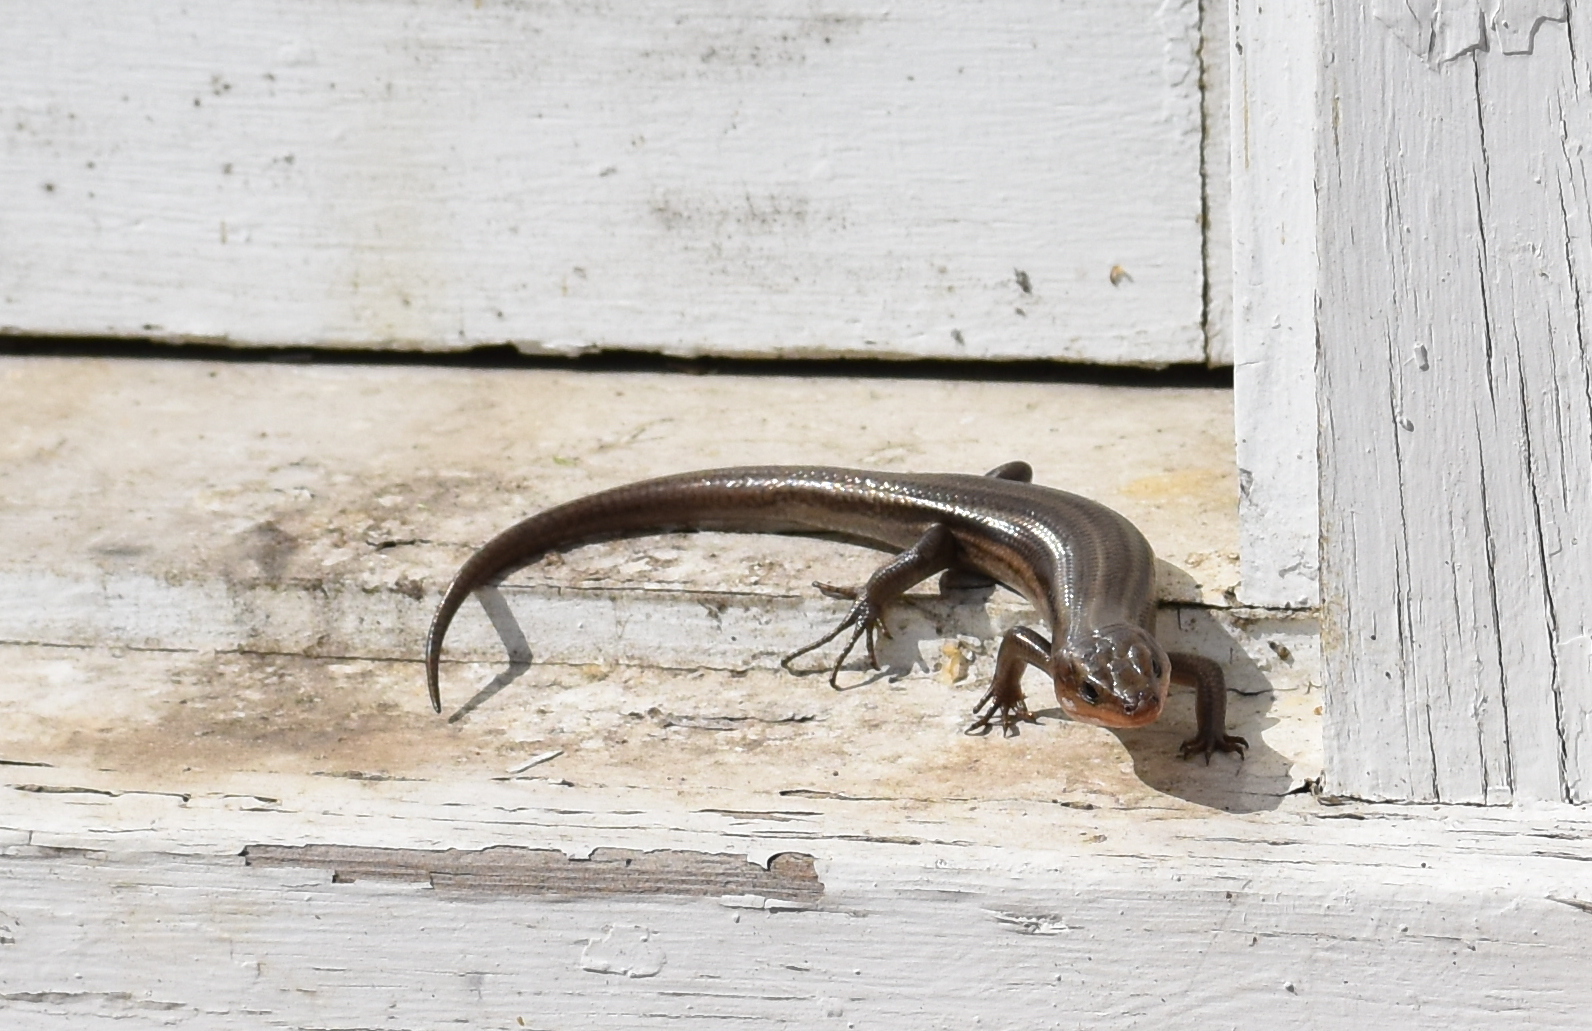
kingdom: Animalia
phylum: Chordata
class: Squamata
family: Scincidae
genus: Plestiodon
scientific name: Plestiodon fasciatus
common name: Five-lined skink
